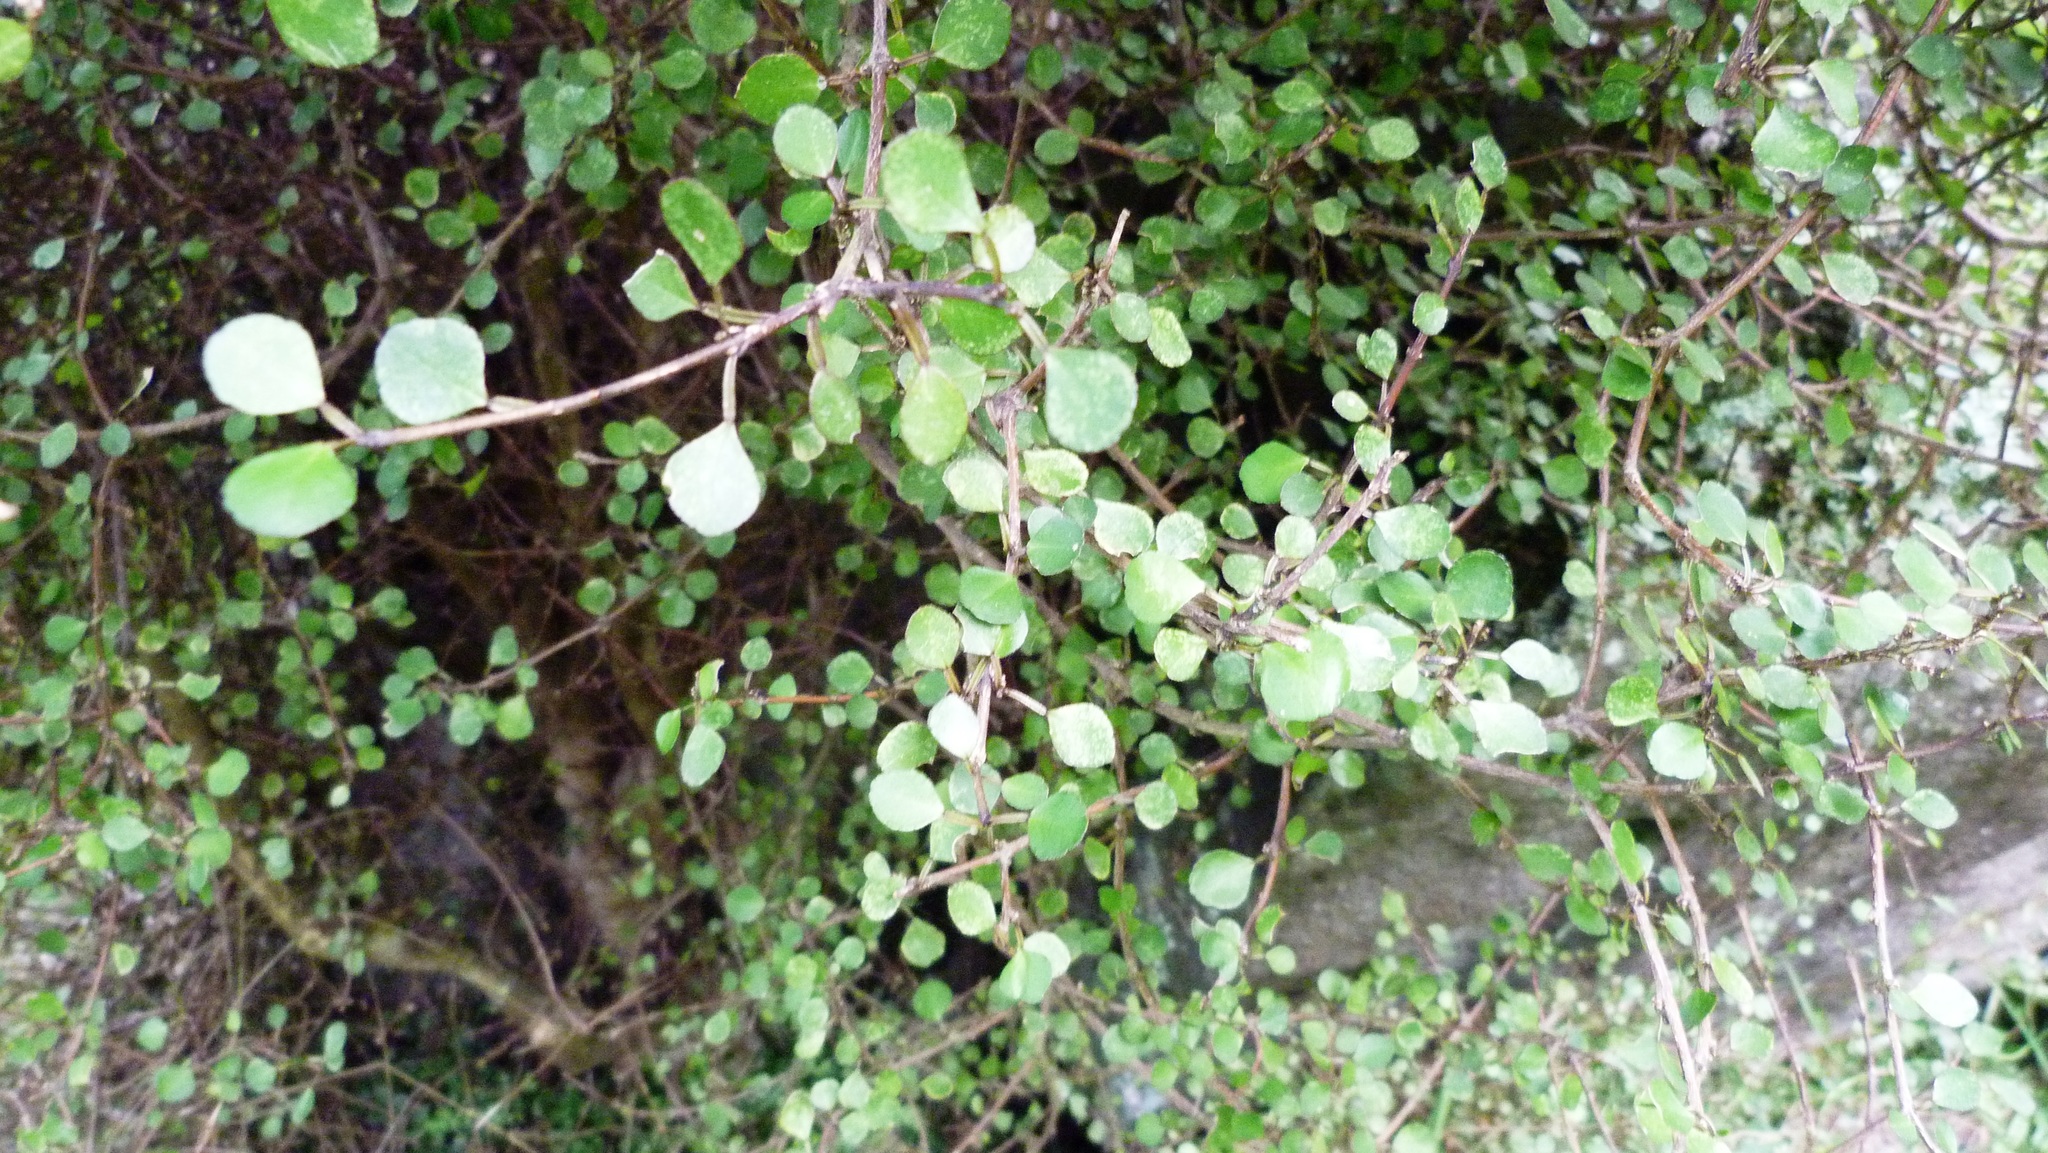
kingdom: Plantae
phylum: Tracheophyta
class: Magnoliopsida
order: Sapindales
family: Rutaceae
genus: Melicope
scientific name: Melicope simplex
